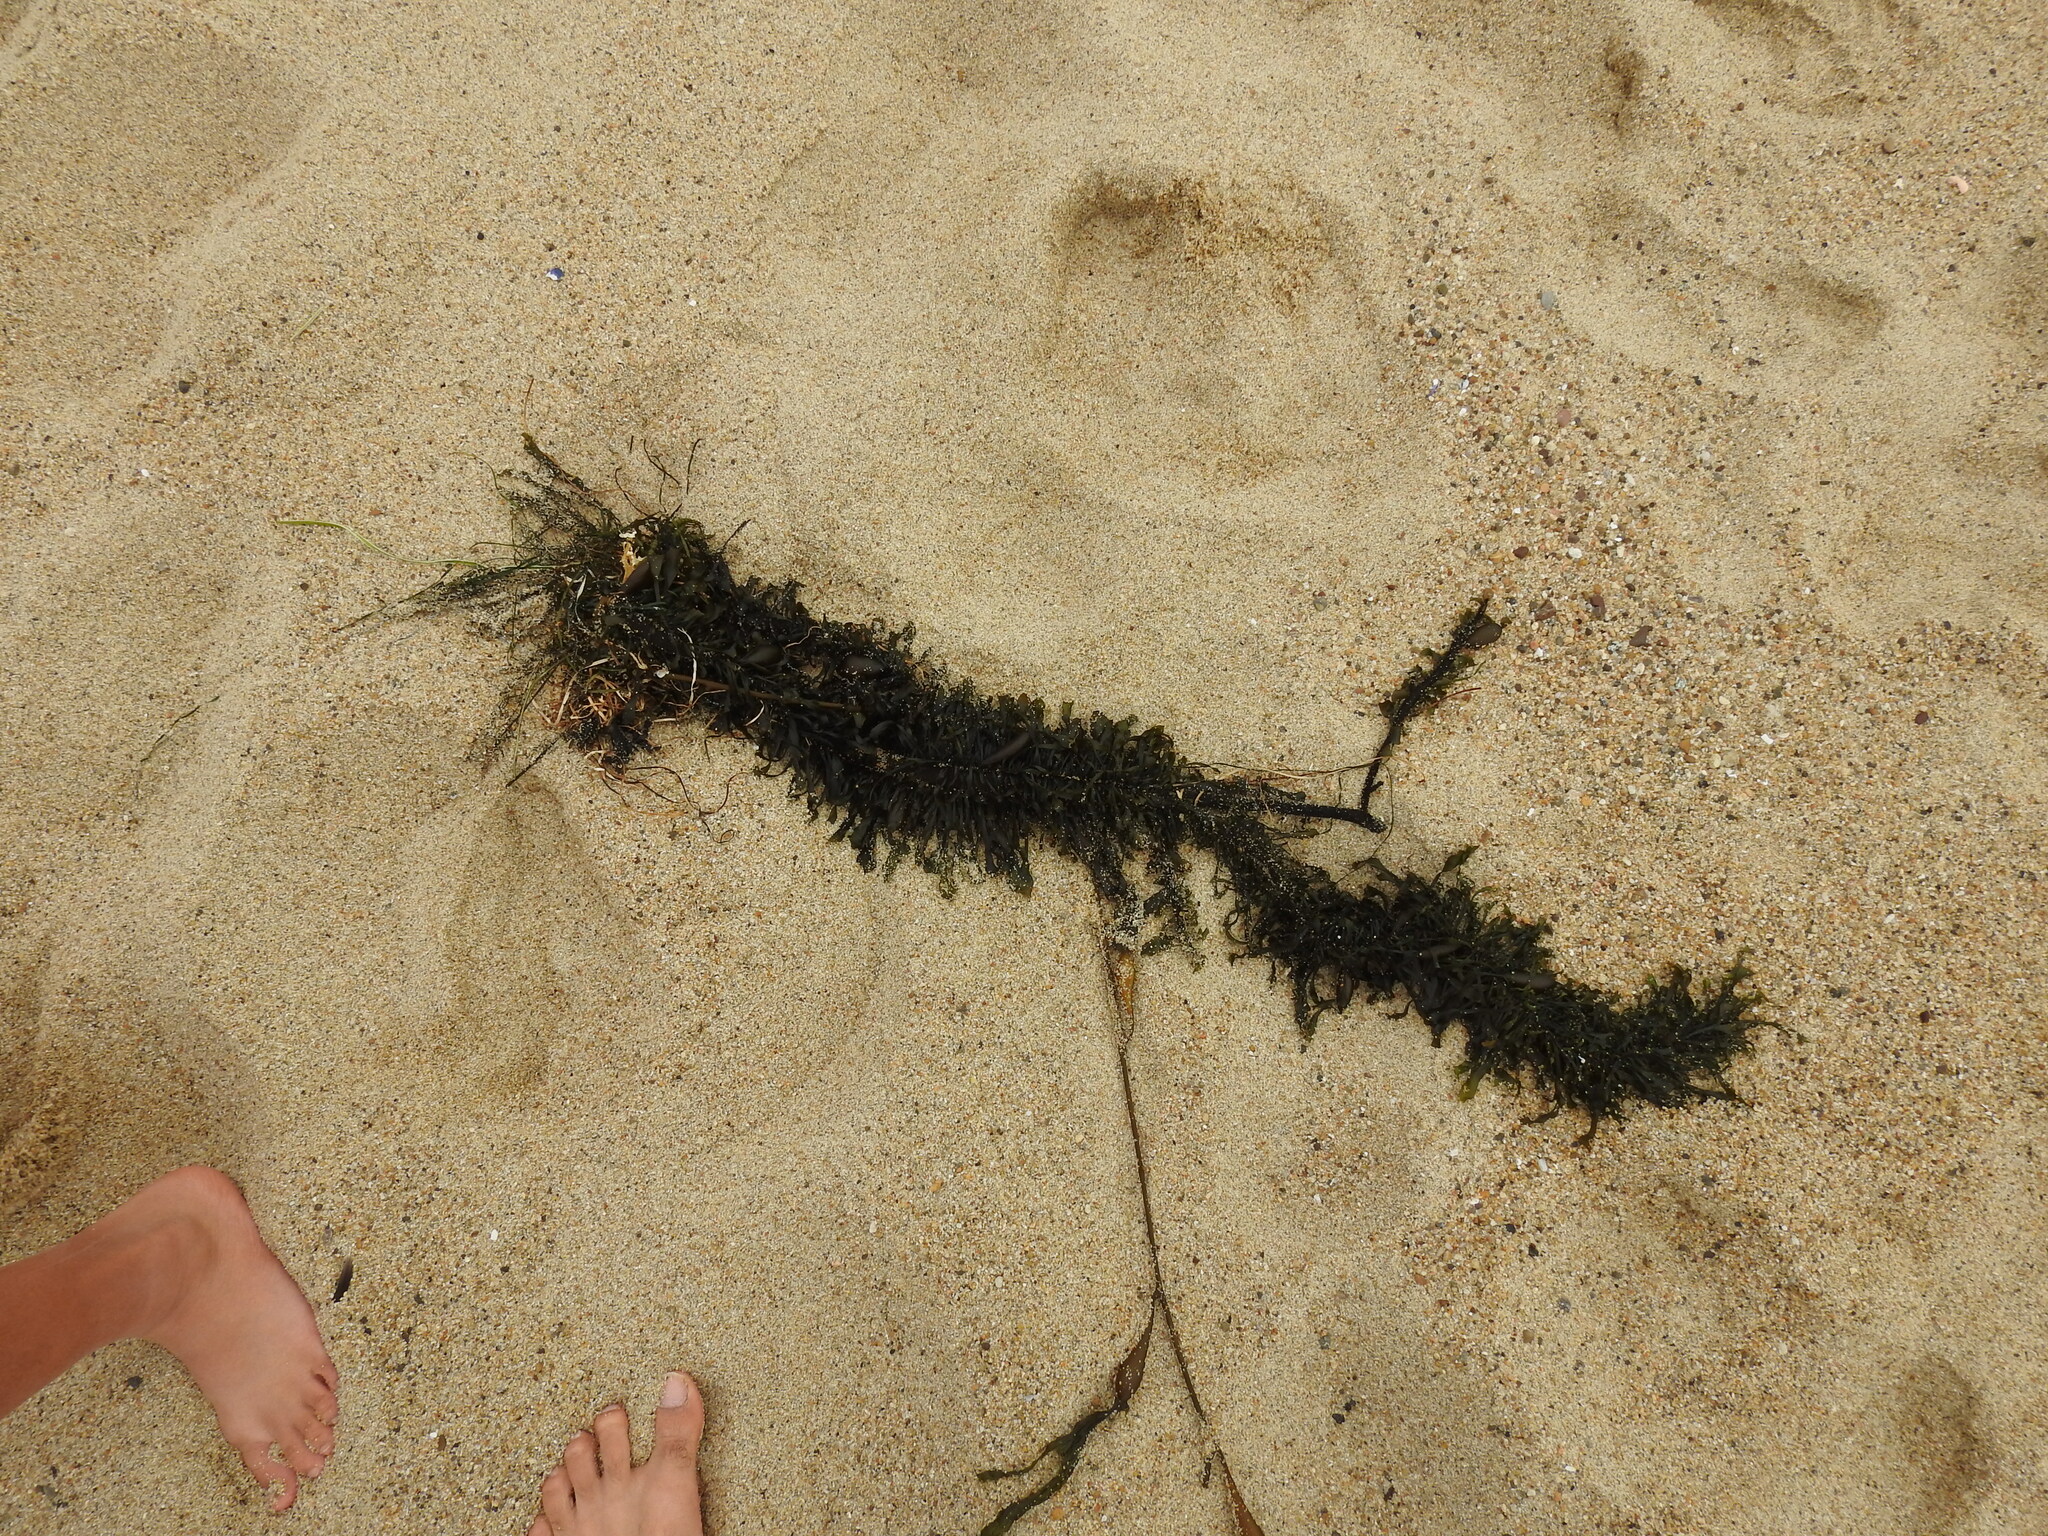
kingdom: Chromista
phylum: Ochrophyta
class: Phaeophyceae
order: Laminariales
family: Lessoniaceae
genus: Egregia
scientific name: Egregia menziesii
